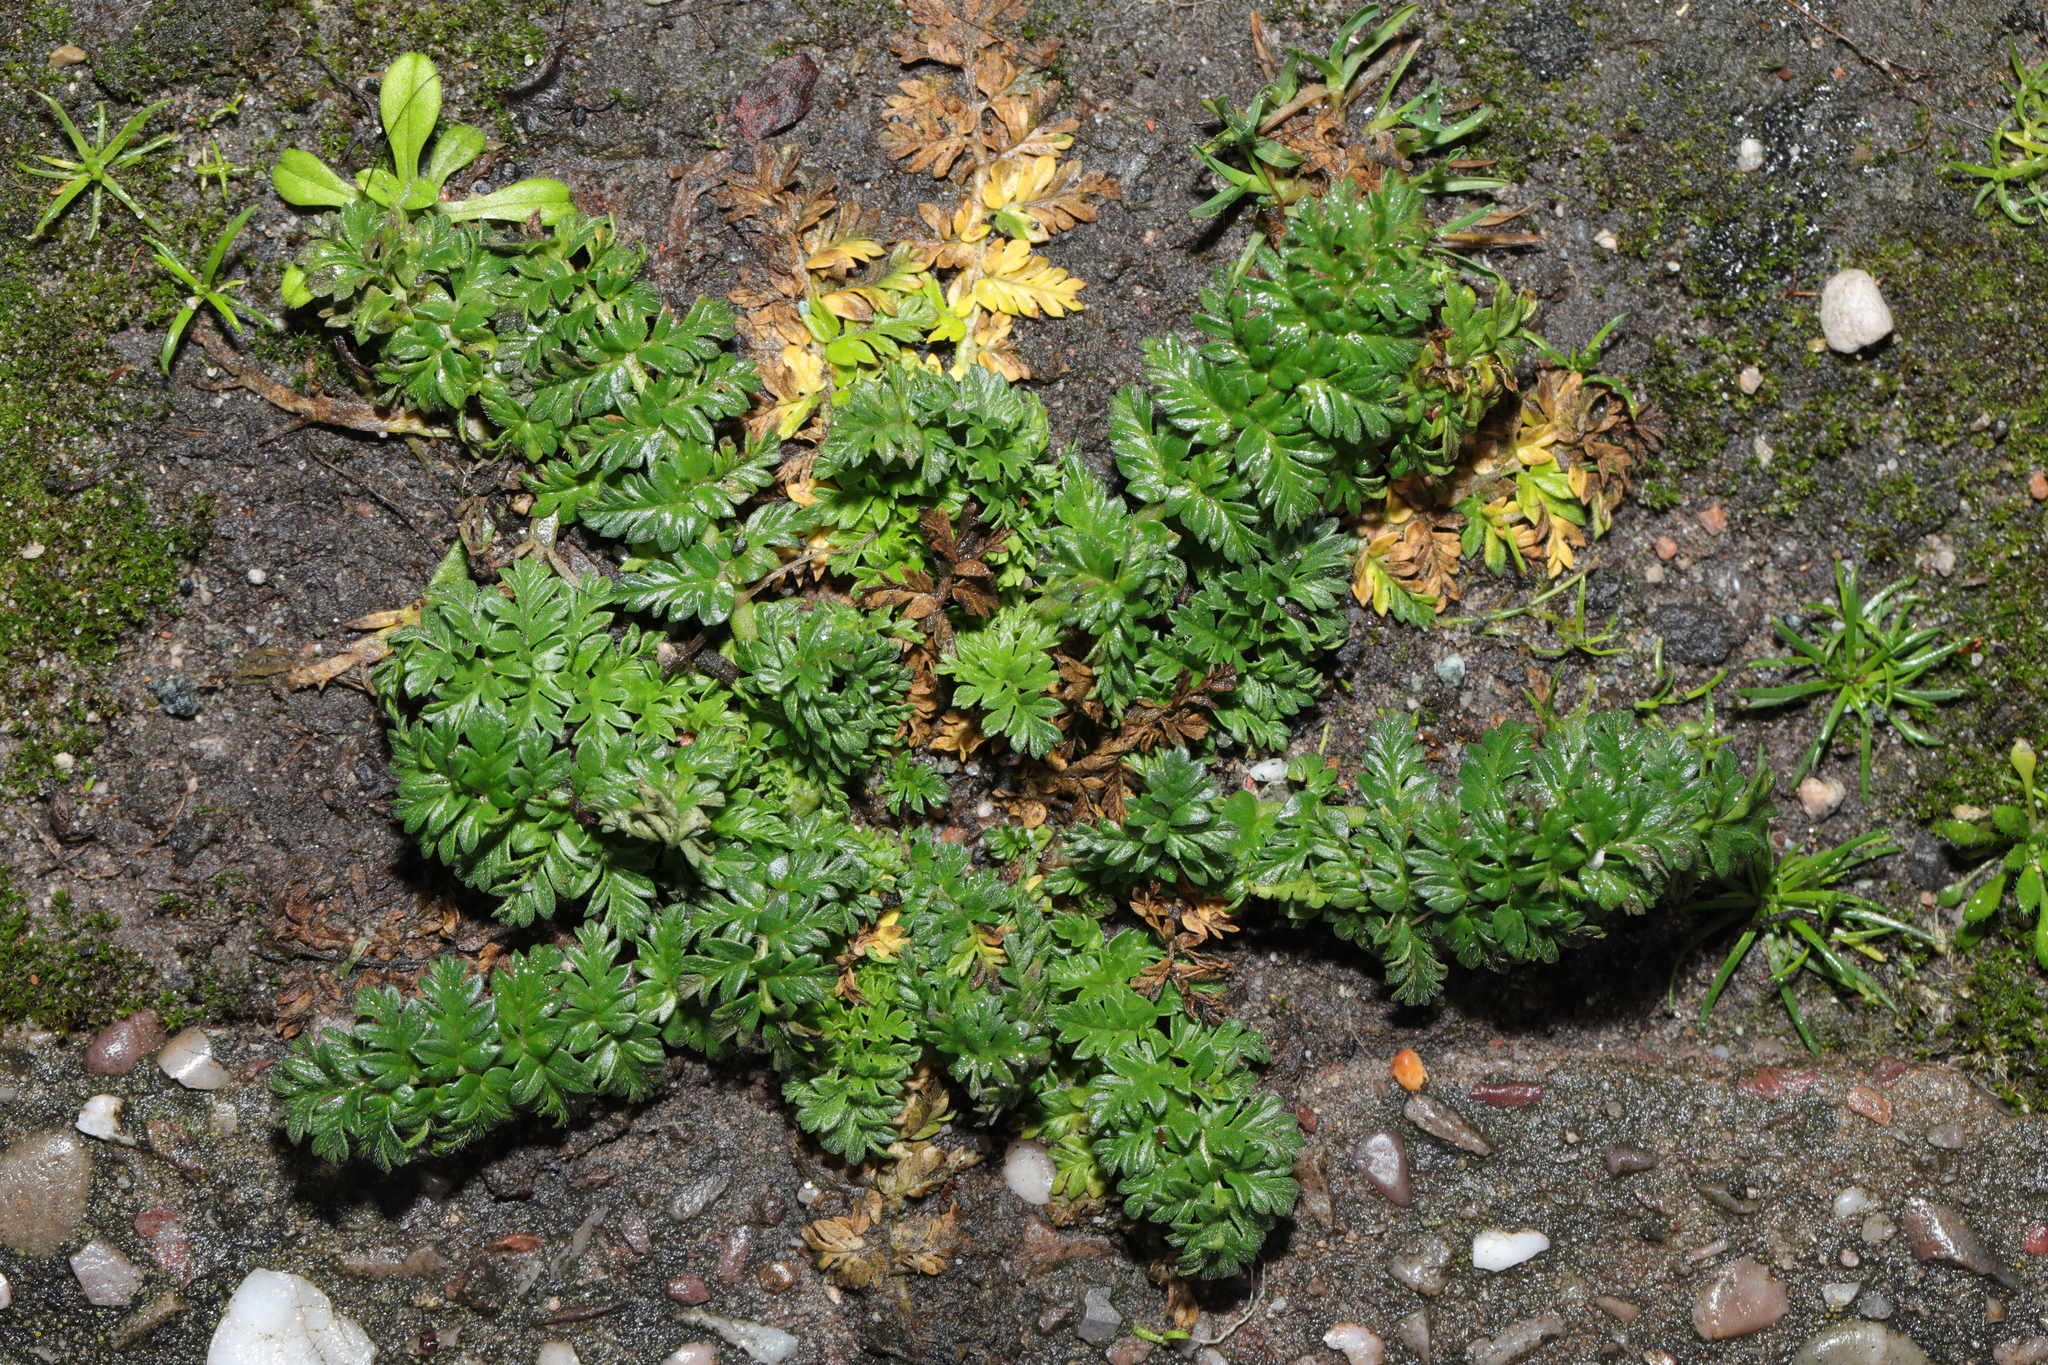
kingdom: Plantae
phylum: Tracheophyta
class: Magnoliopsida
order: Geraniales
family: Geraniaceae
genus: Erodium
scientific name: Erodium cicutarium
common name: Common stork's-bill
